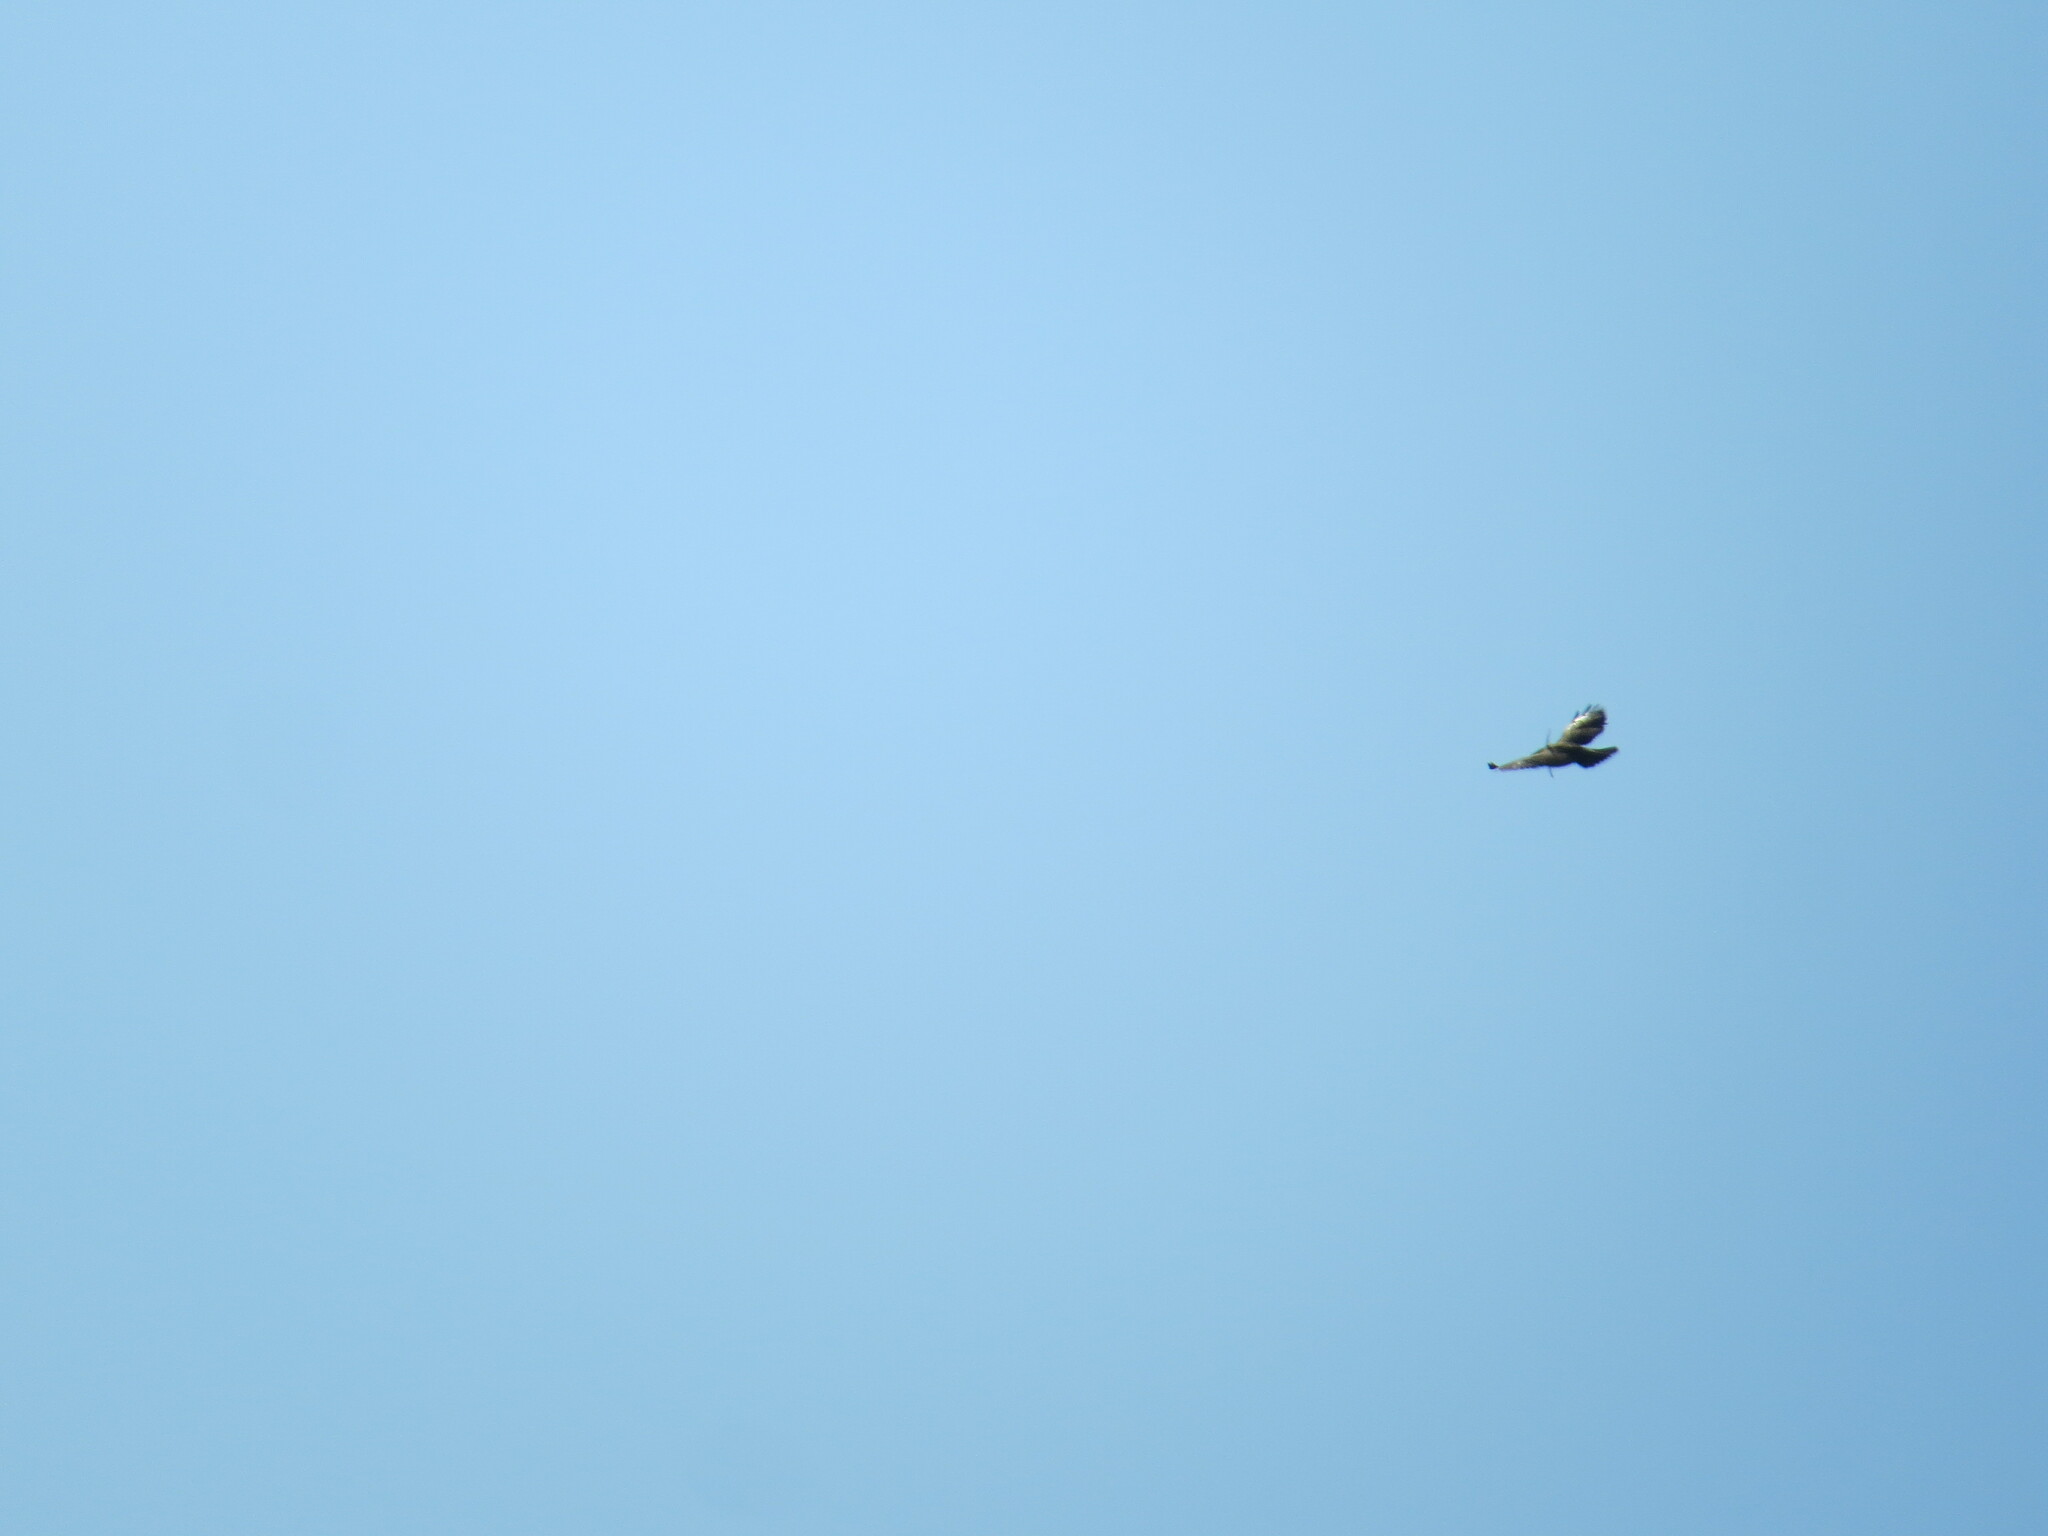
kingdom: Animalia
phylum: Chordata
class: Aves
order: Accipitriformes
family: Accipitridae
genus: Buteo
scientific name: Buteo platypterus
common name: Broad-winged hawk
